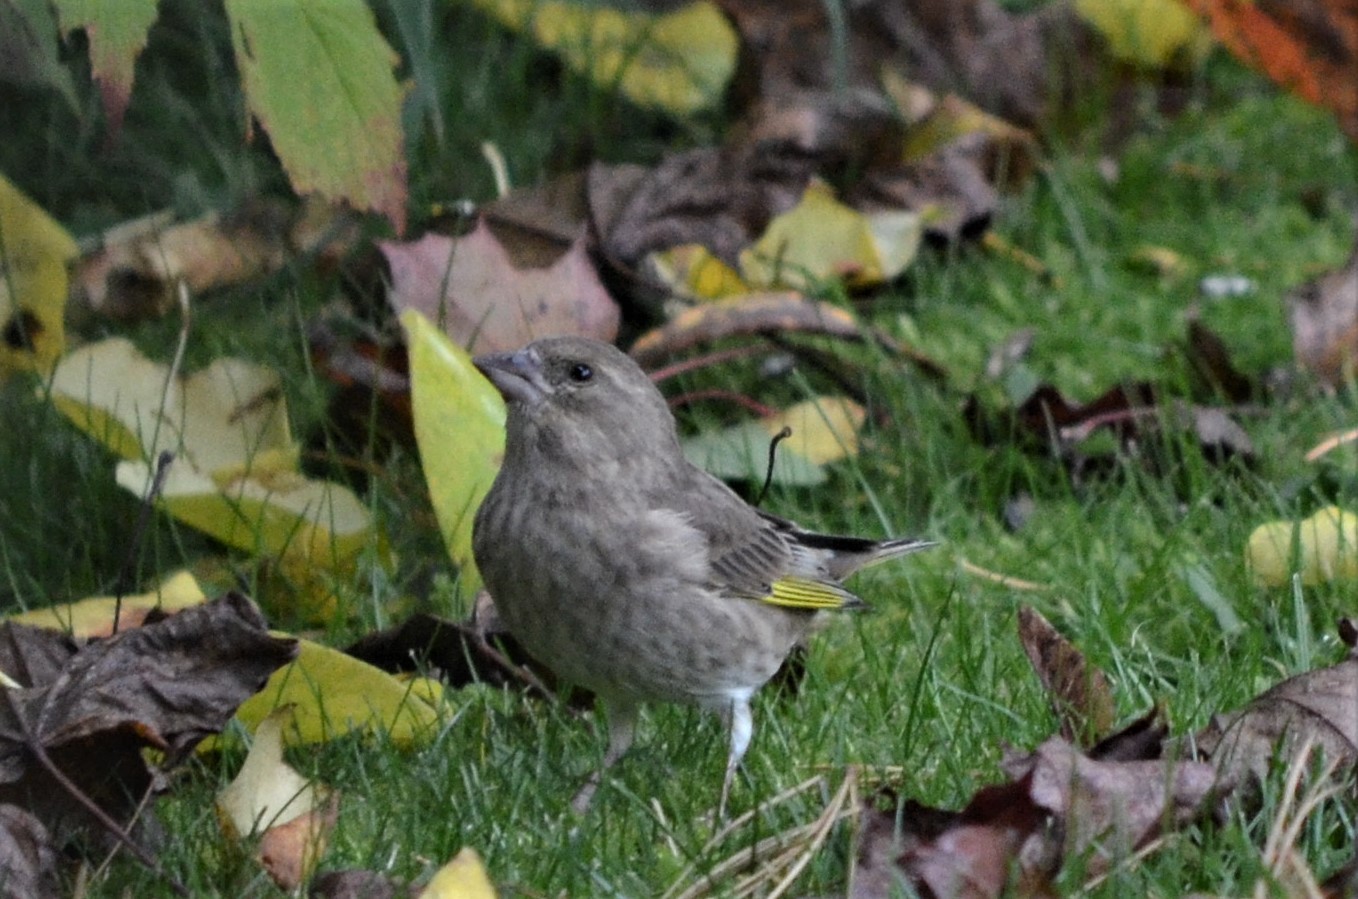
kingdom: Plantae
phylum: Tracheophyta
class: Liliopsida
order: Poales
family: Poaceae
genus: Chloris
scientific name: Chloris chloris
